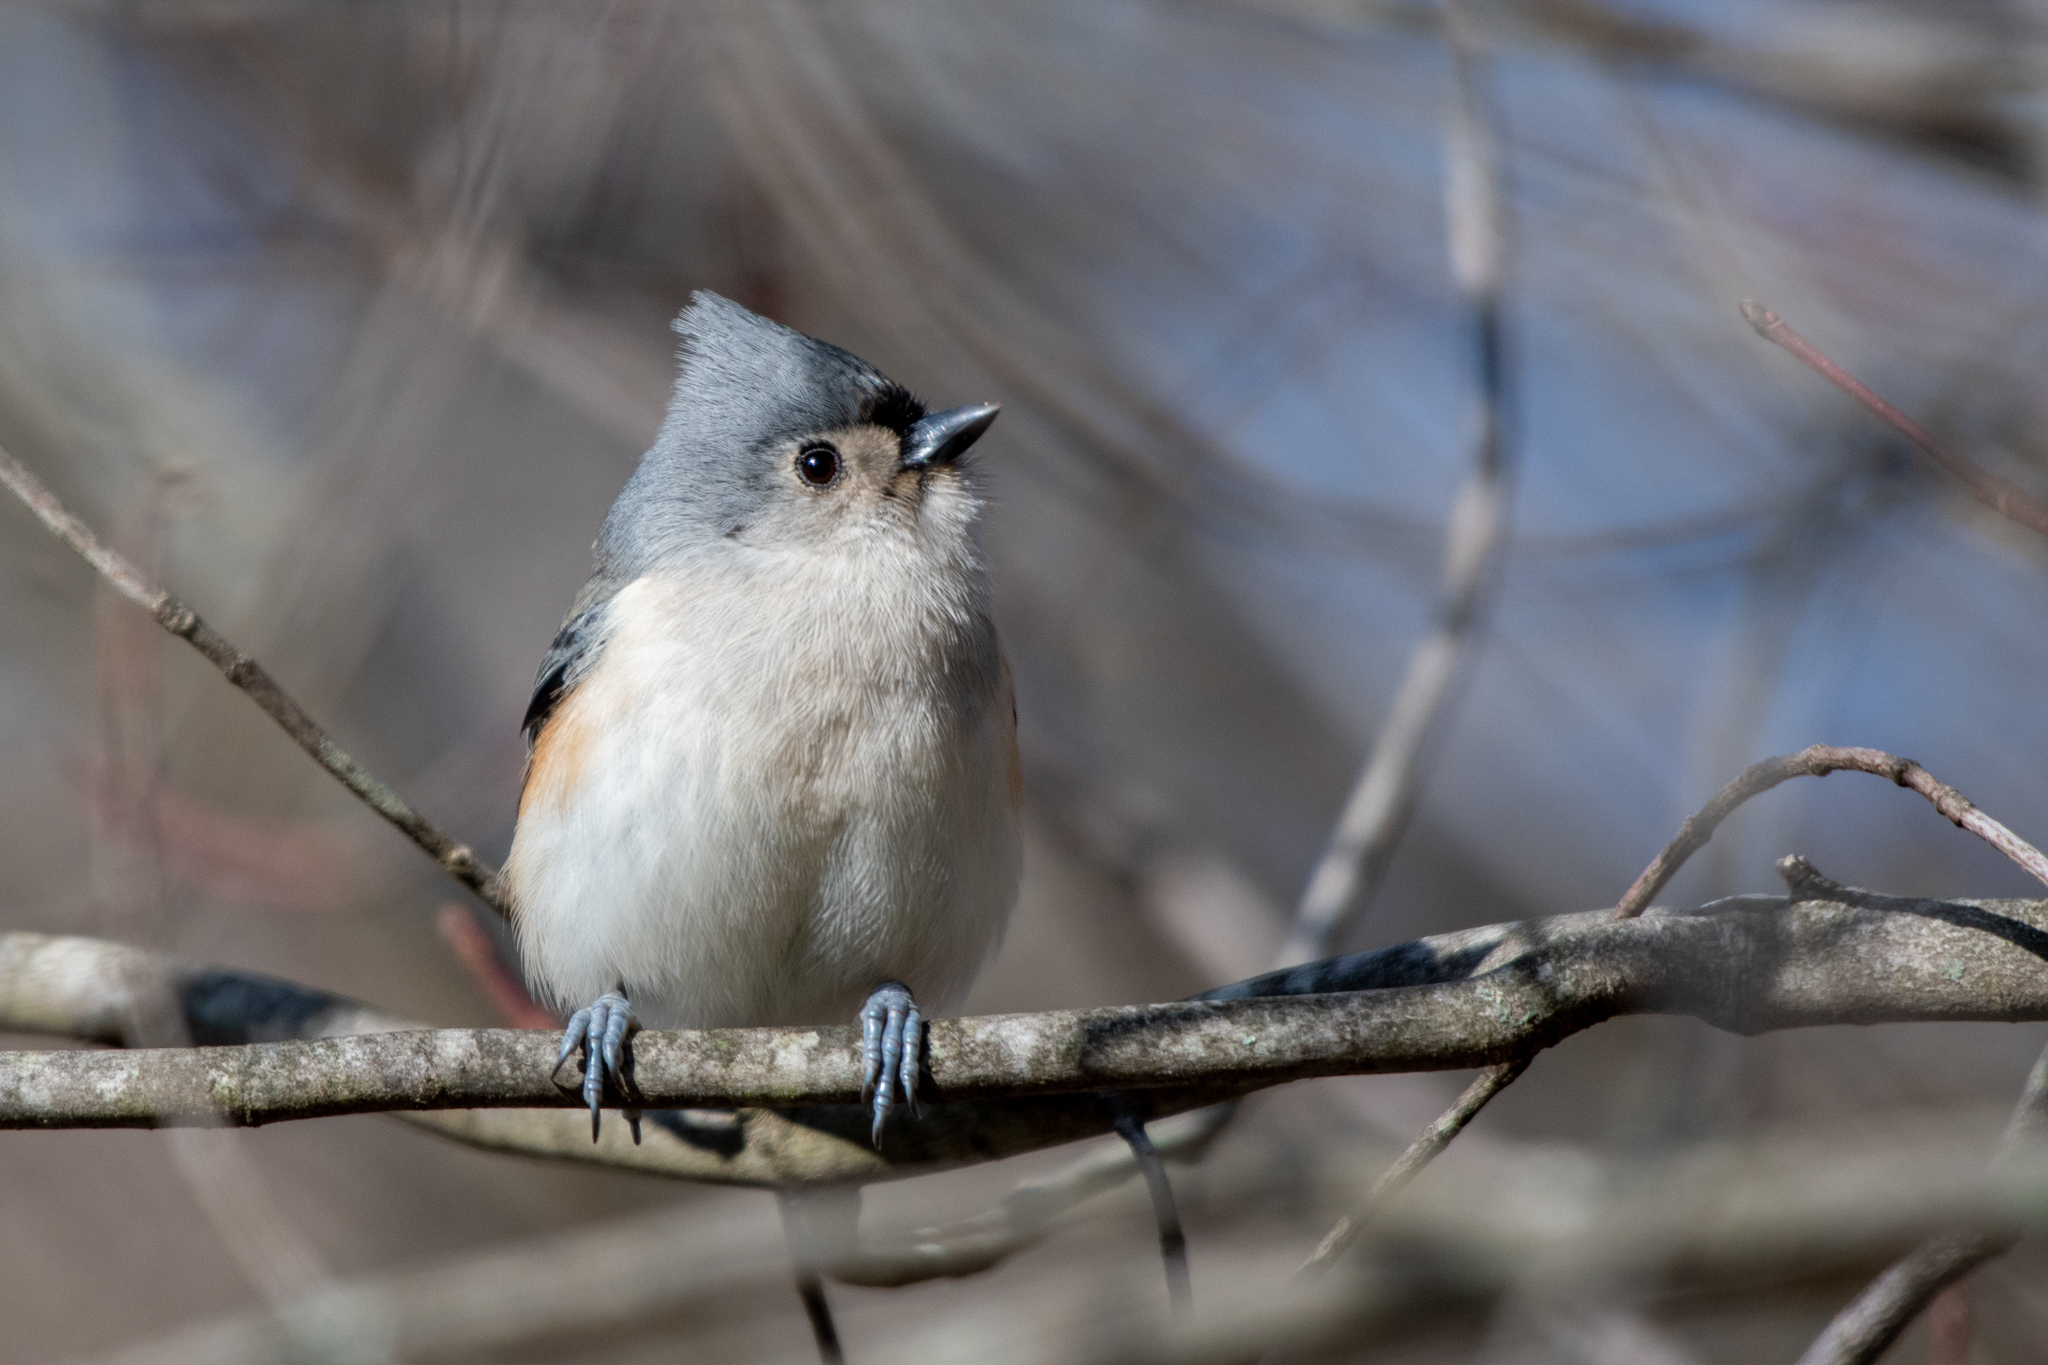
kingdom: Animalia
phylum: Chordata
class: Aves
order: Passeriformes
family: Paridae
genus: Baeolophus
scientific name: Baeolophus bicolor
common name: Tufted titmouse
